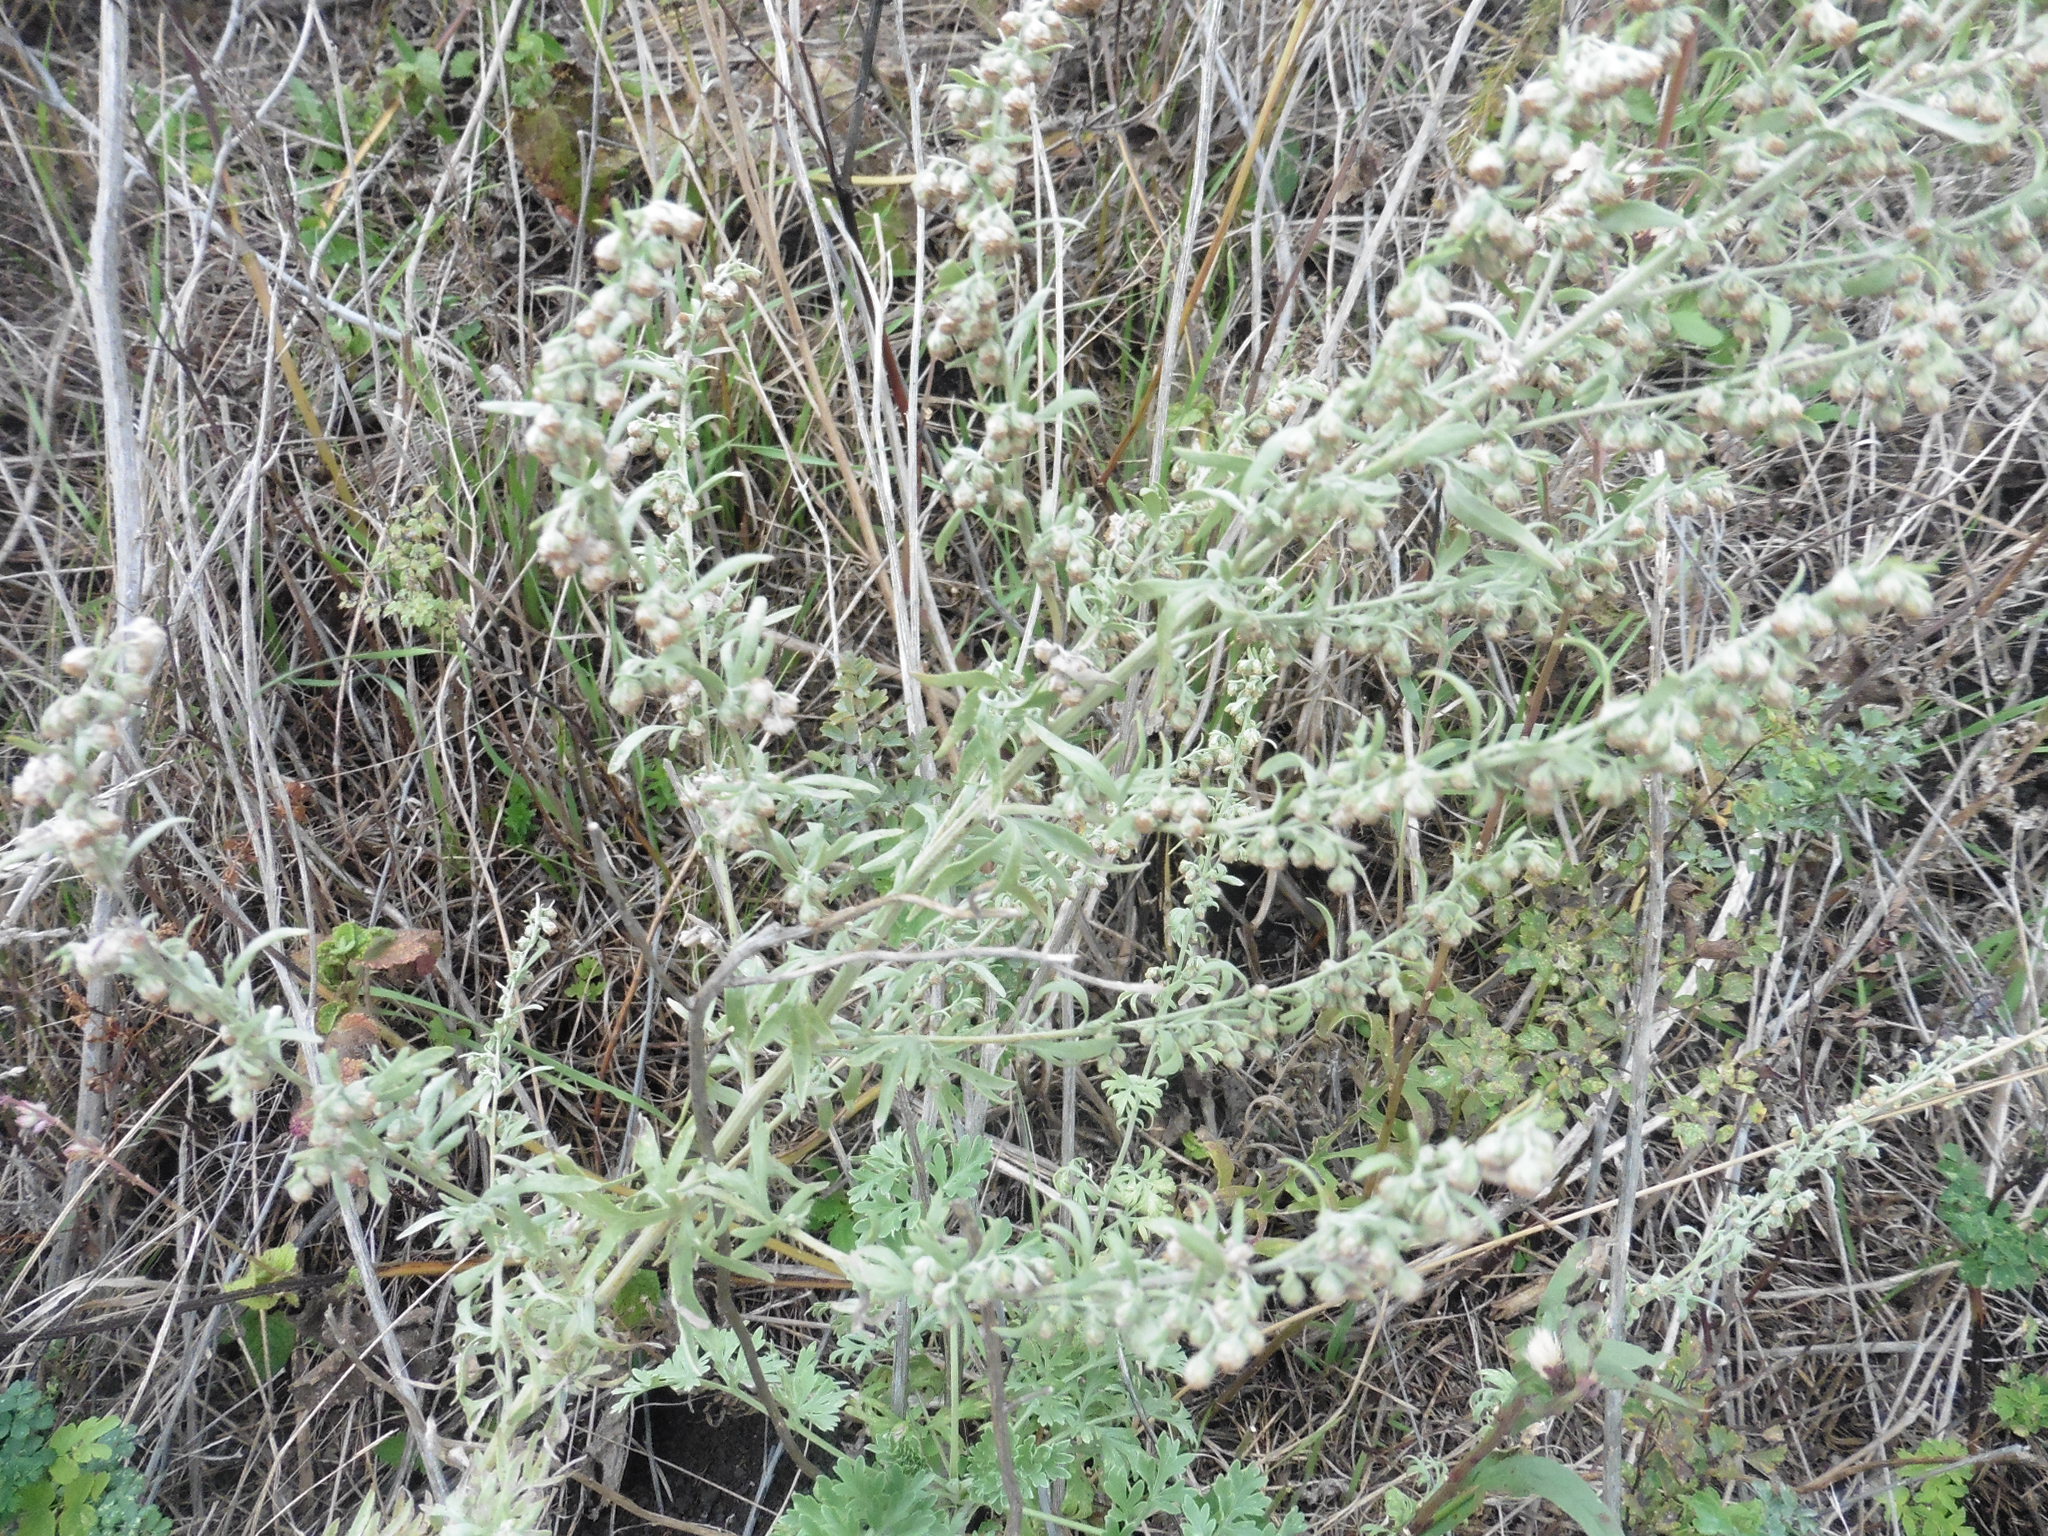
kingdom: Plantae
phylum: Tracheophyta
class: Magnoliopsida
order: Asterales
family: Asteraceae
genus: Artemisia
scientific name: Artemisia absinthium
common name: Wormwood
